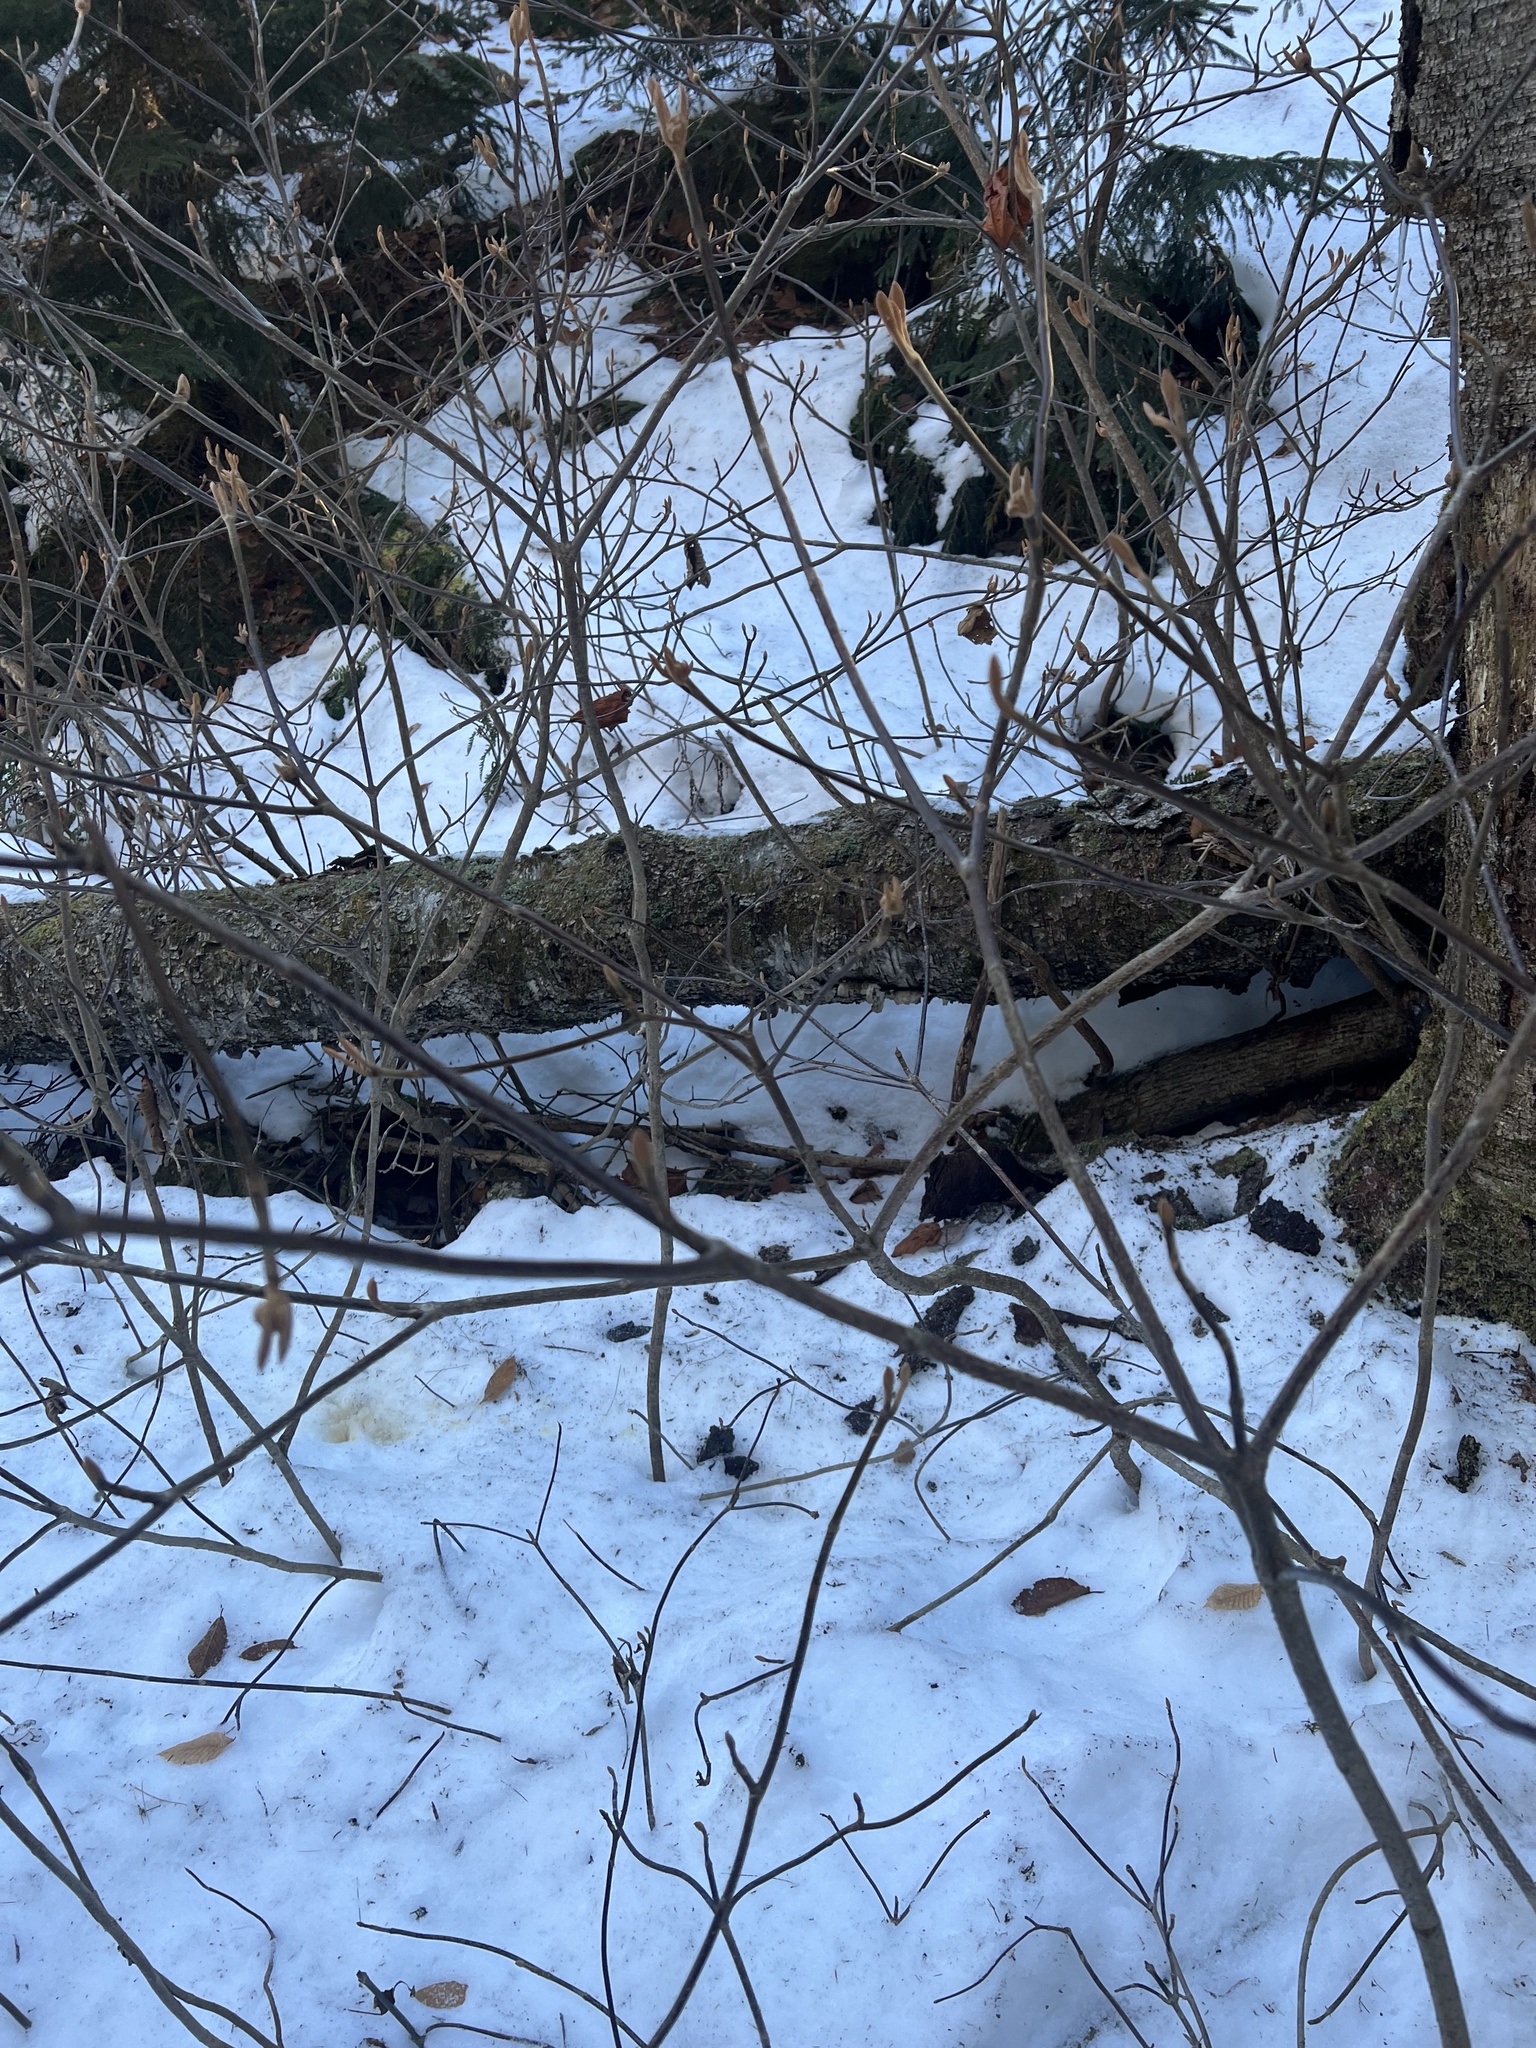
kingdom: Plantae
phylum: Tracheophyta
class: Magnoliopsida
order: Dipsacales
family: Viburnaceae
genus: Viburnum
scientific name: Viburnum lantanoides
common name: Hobblebush
